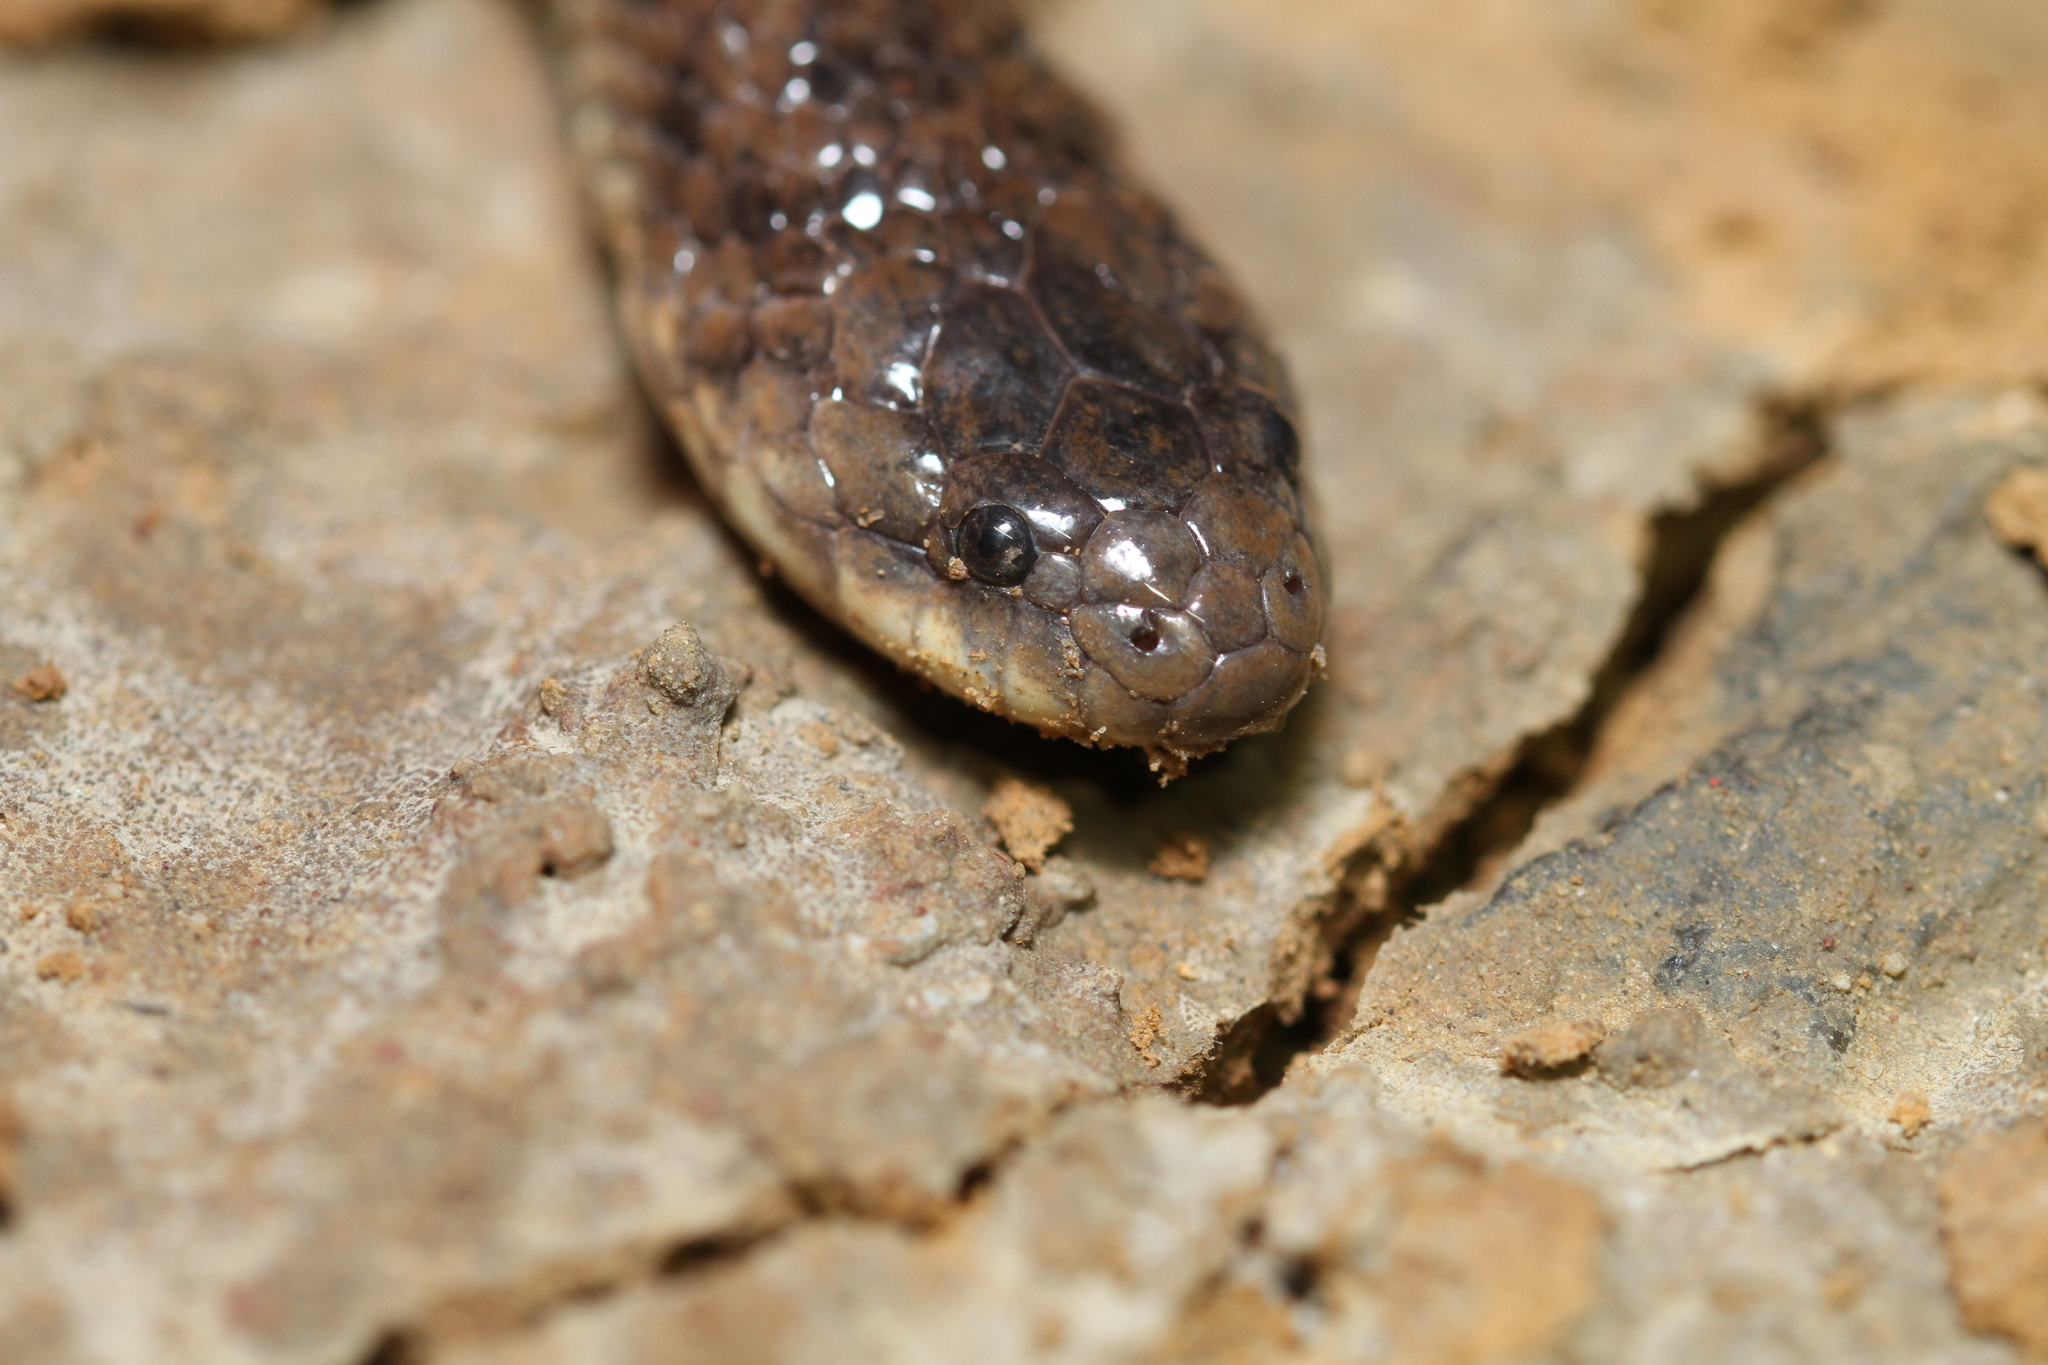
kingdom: Animalia
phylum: Chordata
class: Squamata
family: Homalopsidae
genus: Fordonia
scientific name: Fordonia leucobalia
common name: White-bellied mangrove snake
